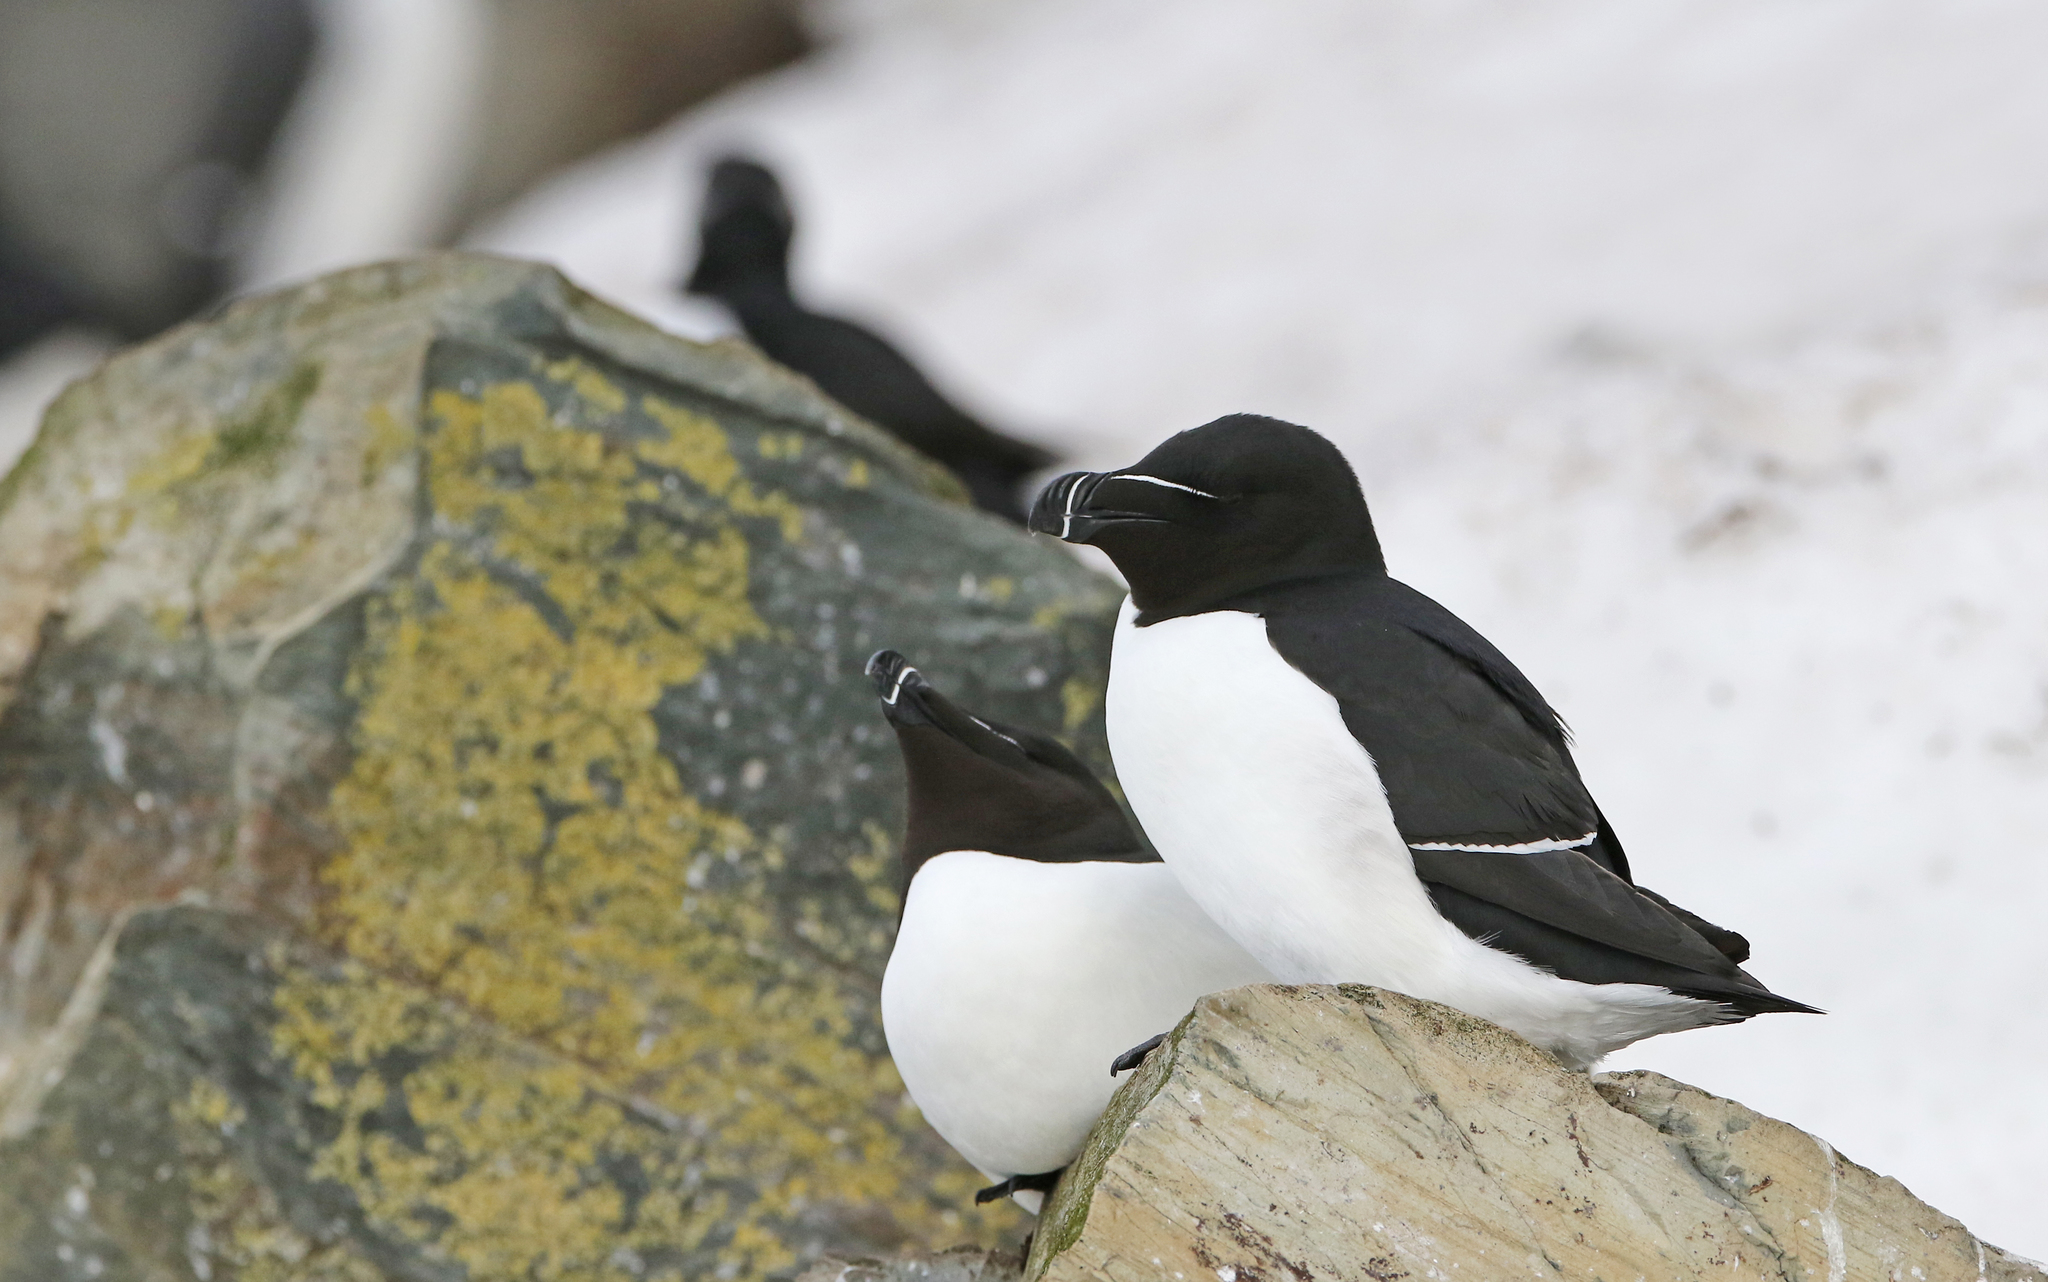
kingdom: Animalia
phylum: Chordata
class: Aves
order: Charadriiformes
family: Alcidae
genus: Alca
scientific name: Alca torda
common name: Razorbill
